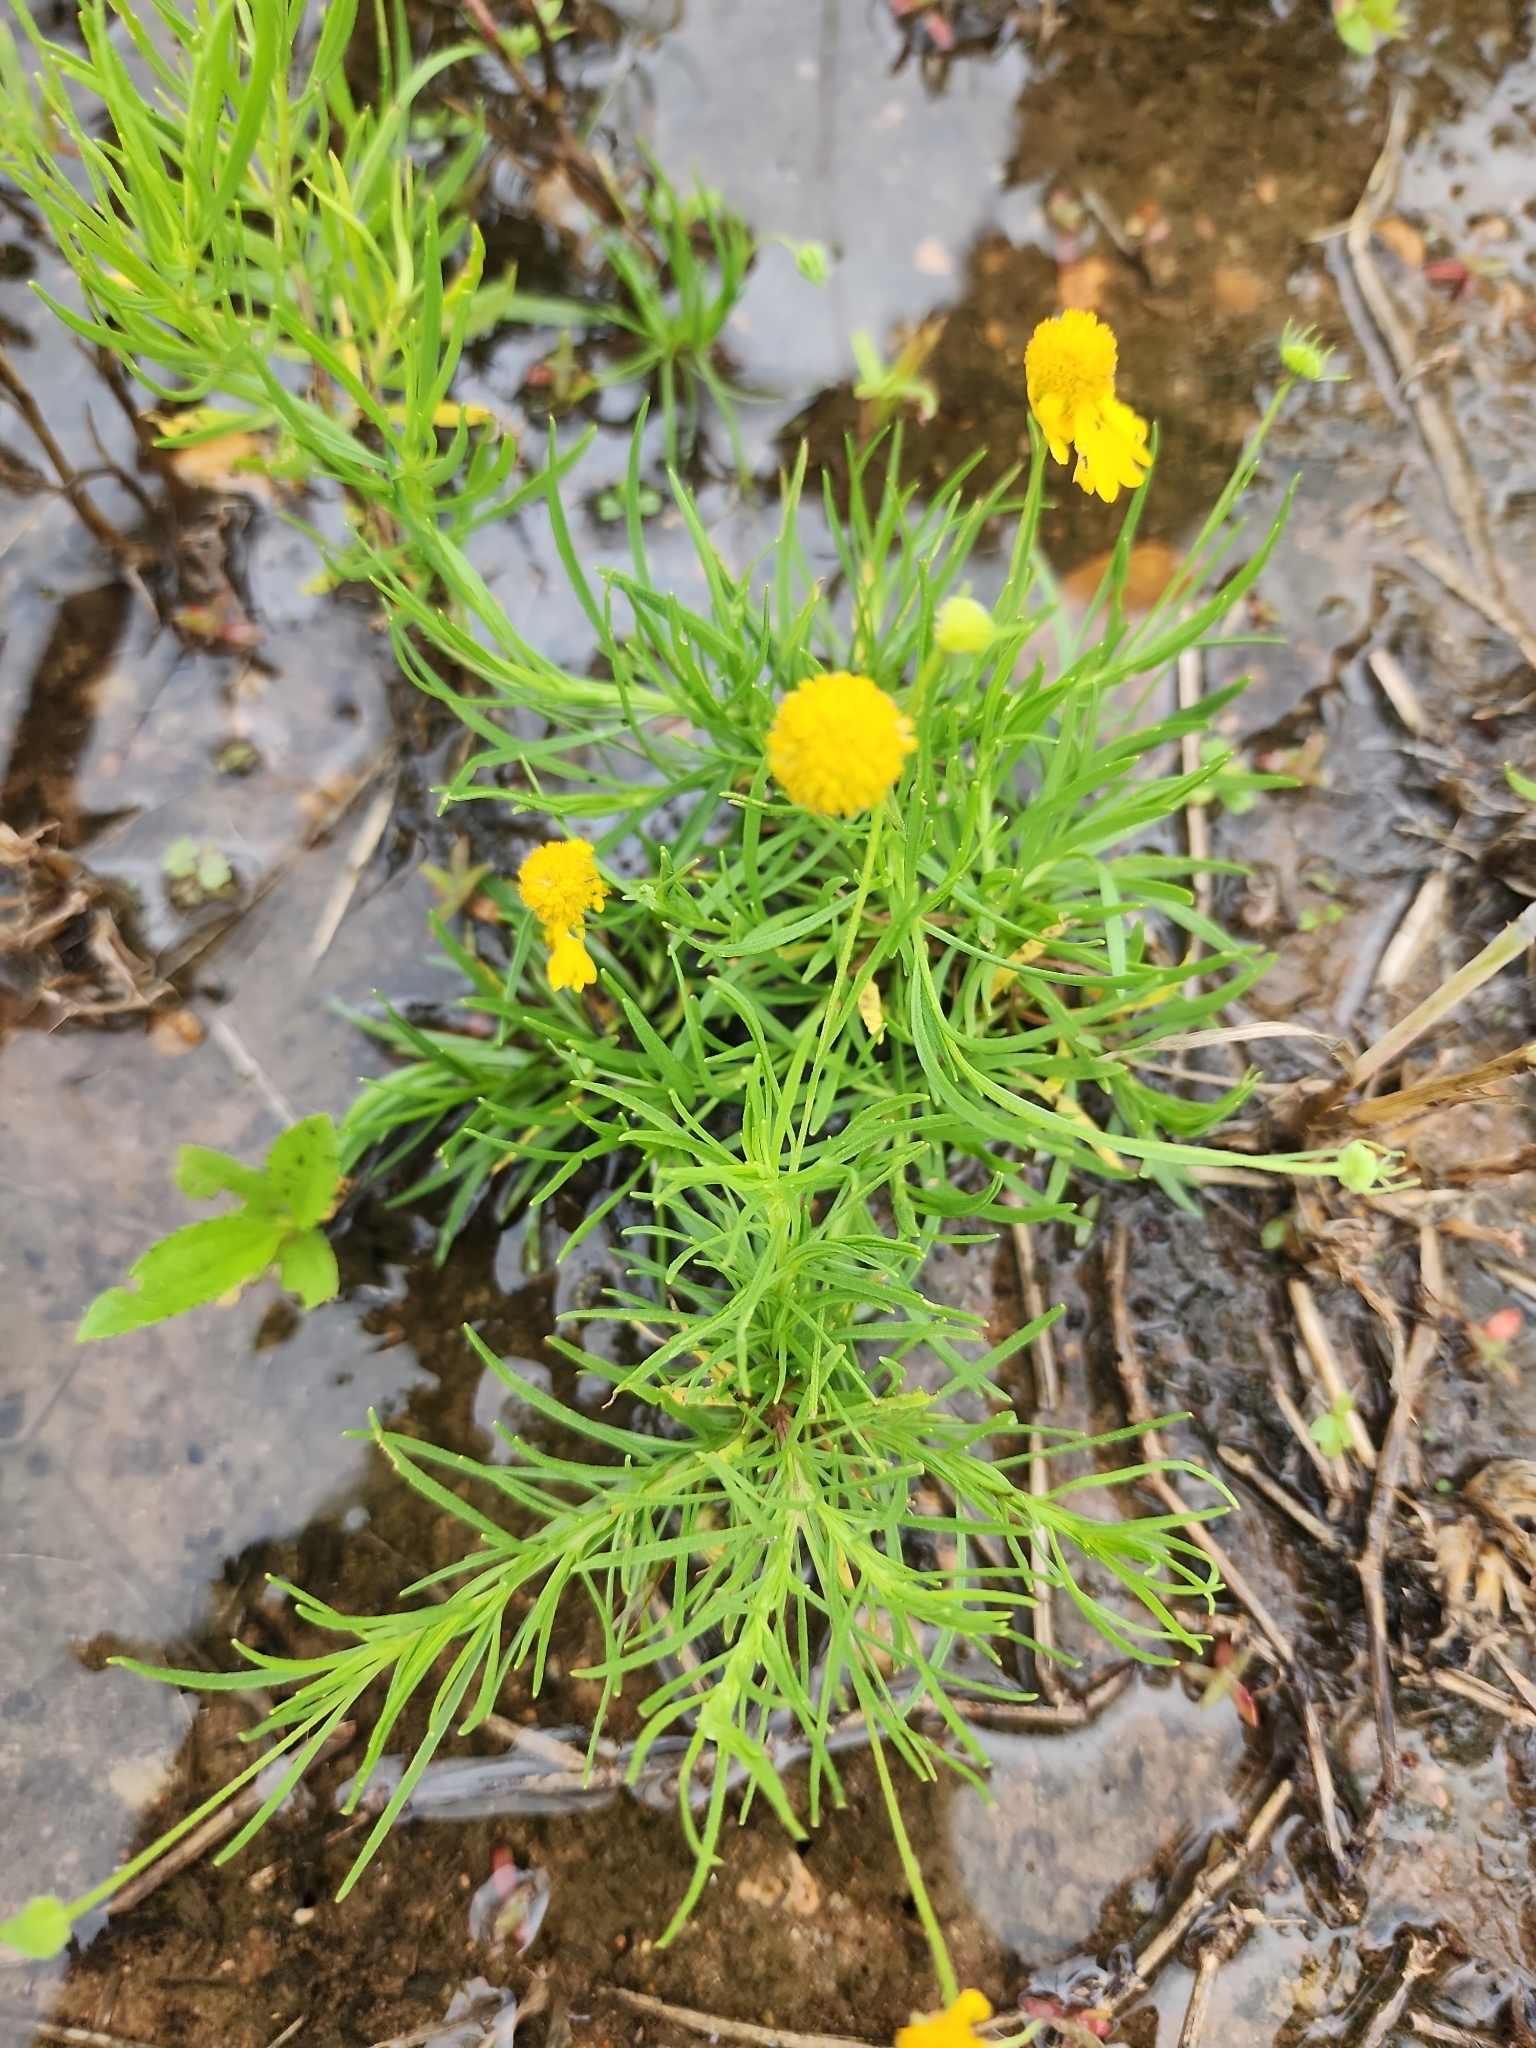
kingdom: Plantae
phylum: Tracheophyta
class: Magnoliopsida
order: Asterales
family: Asteraceae
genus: Helenium
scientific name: Helenium amarum
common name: Bitter sneezeweed
